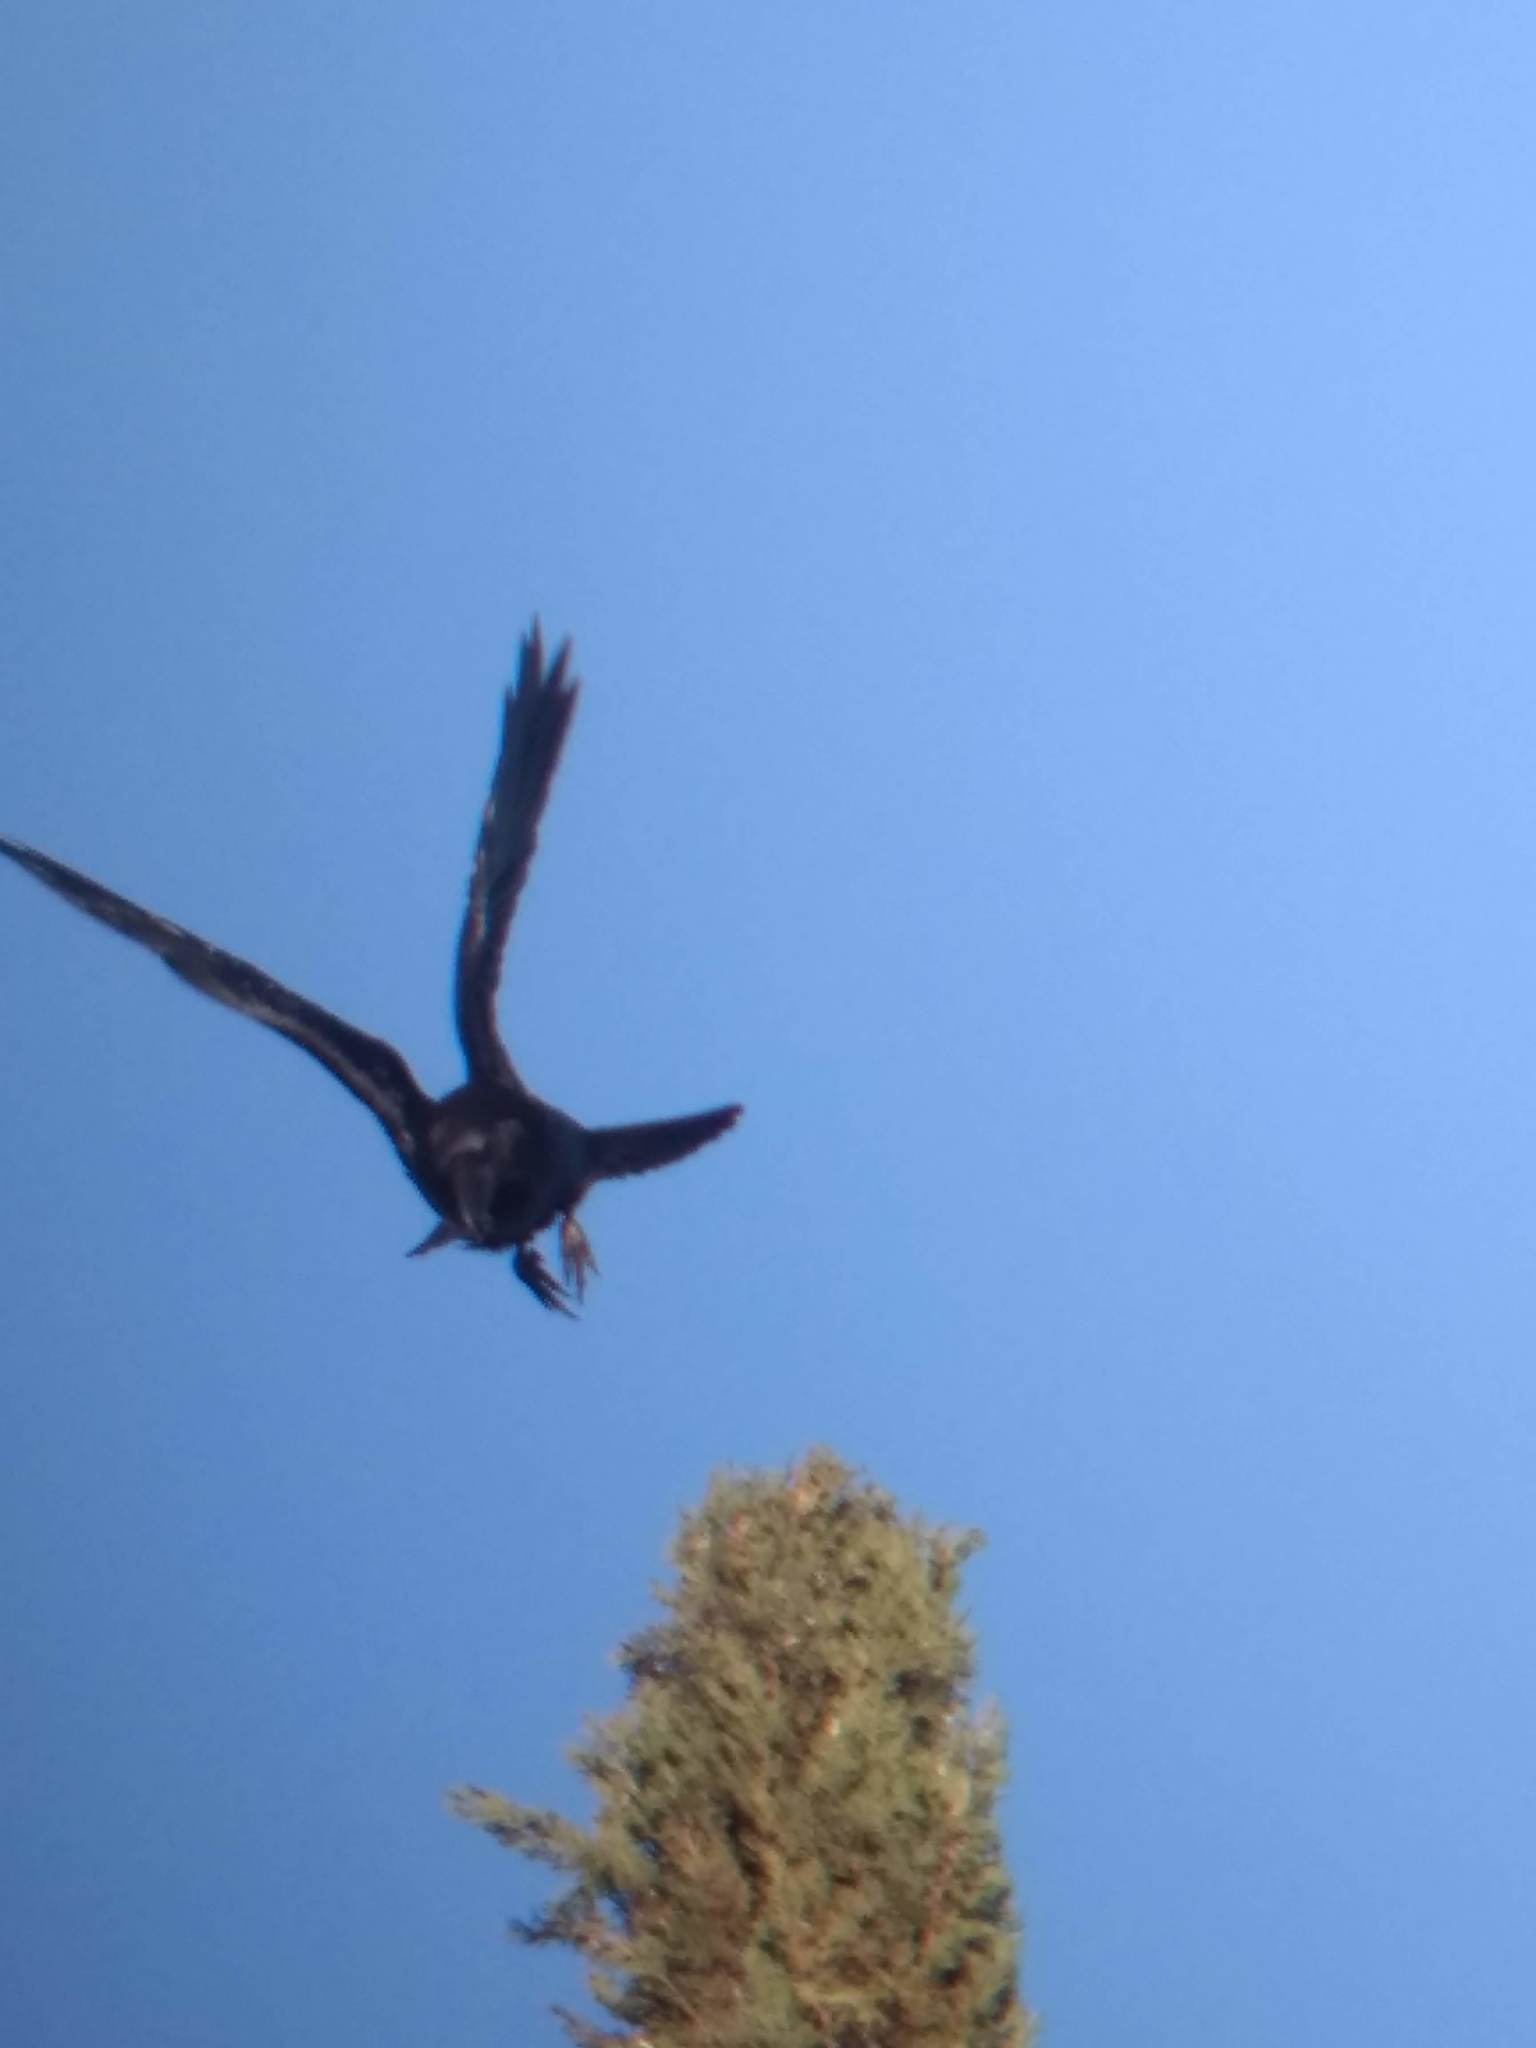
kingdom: Animalia
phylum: Chordata
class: Aves
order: Passeriformes
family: Corvidae
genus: Corvus
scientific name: Corvus corax
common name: Common raven
